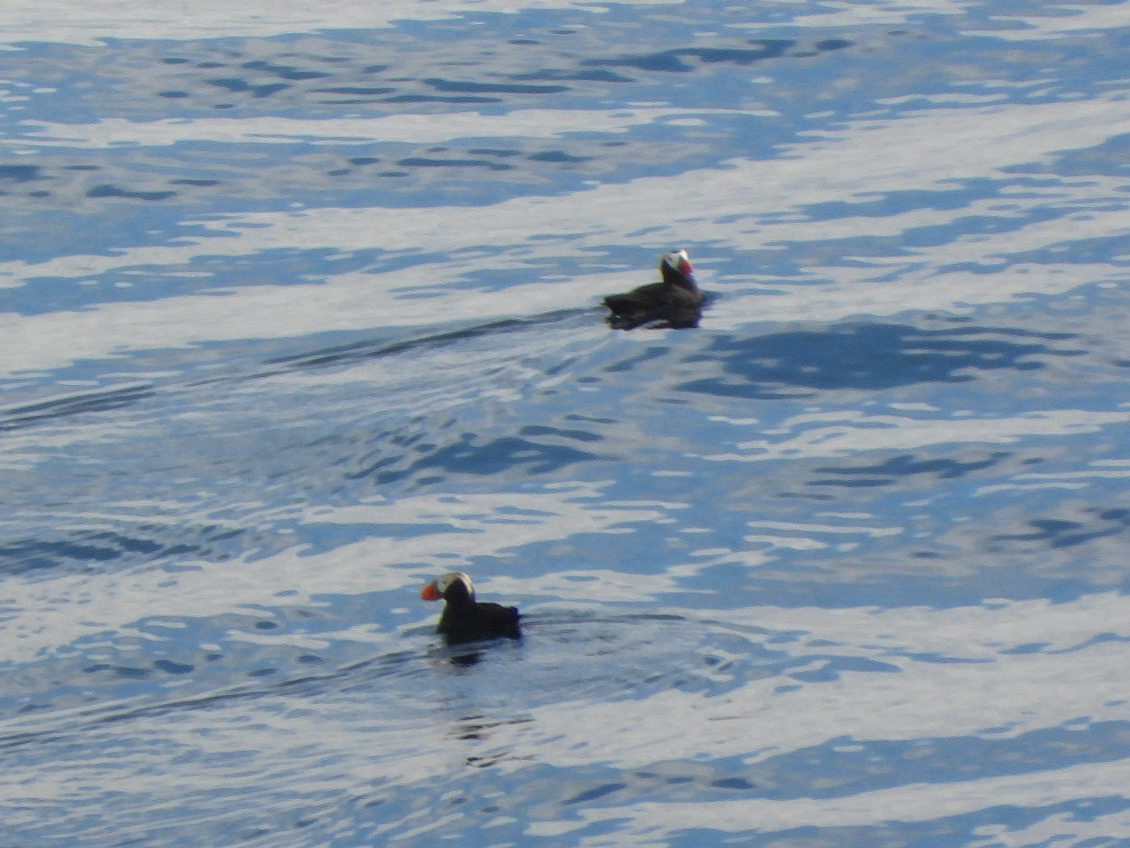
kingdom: Animalia
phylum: Chordata
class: Aves
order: Charadriiformes
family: Alcidae
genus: Fratercula
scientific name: Fratercula cirrhata
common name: Tufted puffin
